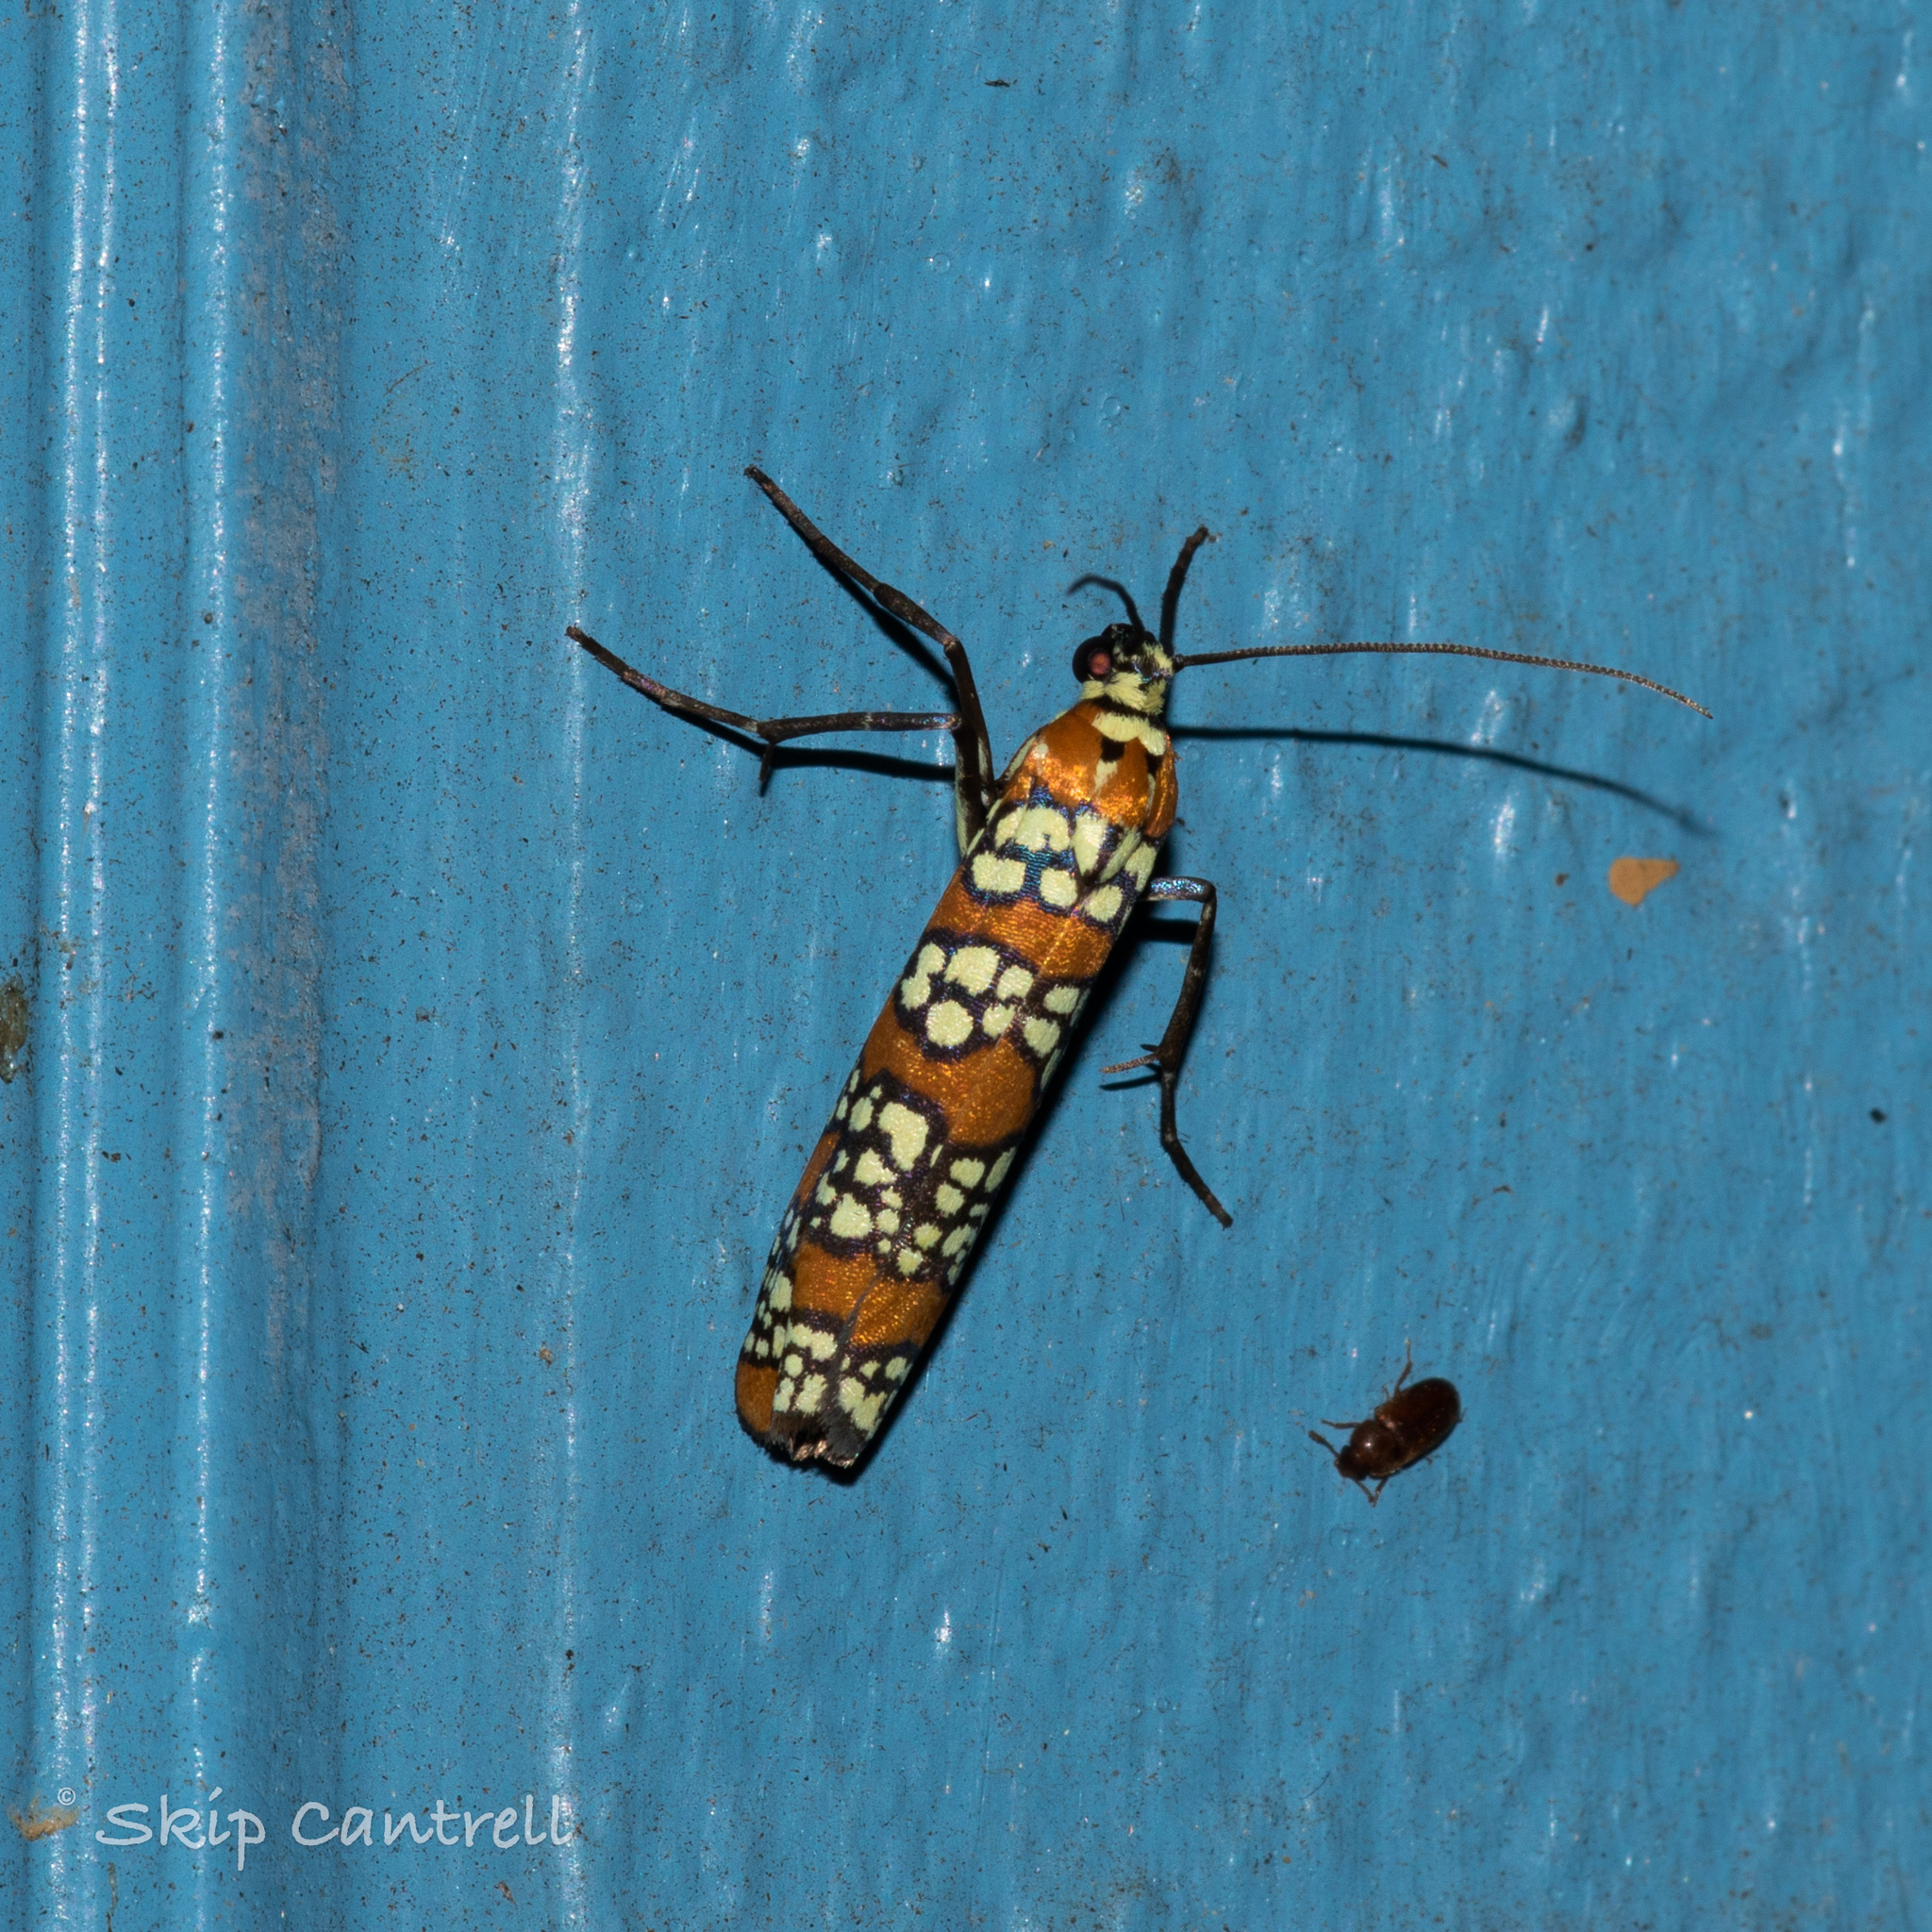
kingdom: Animalia
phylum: Arthropoda
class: Insecta
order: Lepidoptera
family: Attevidae
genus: Atteva
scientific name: Atteva punctella
